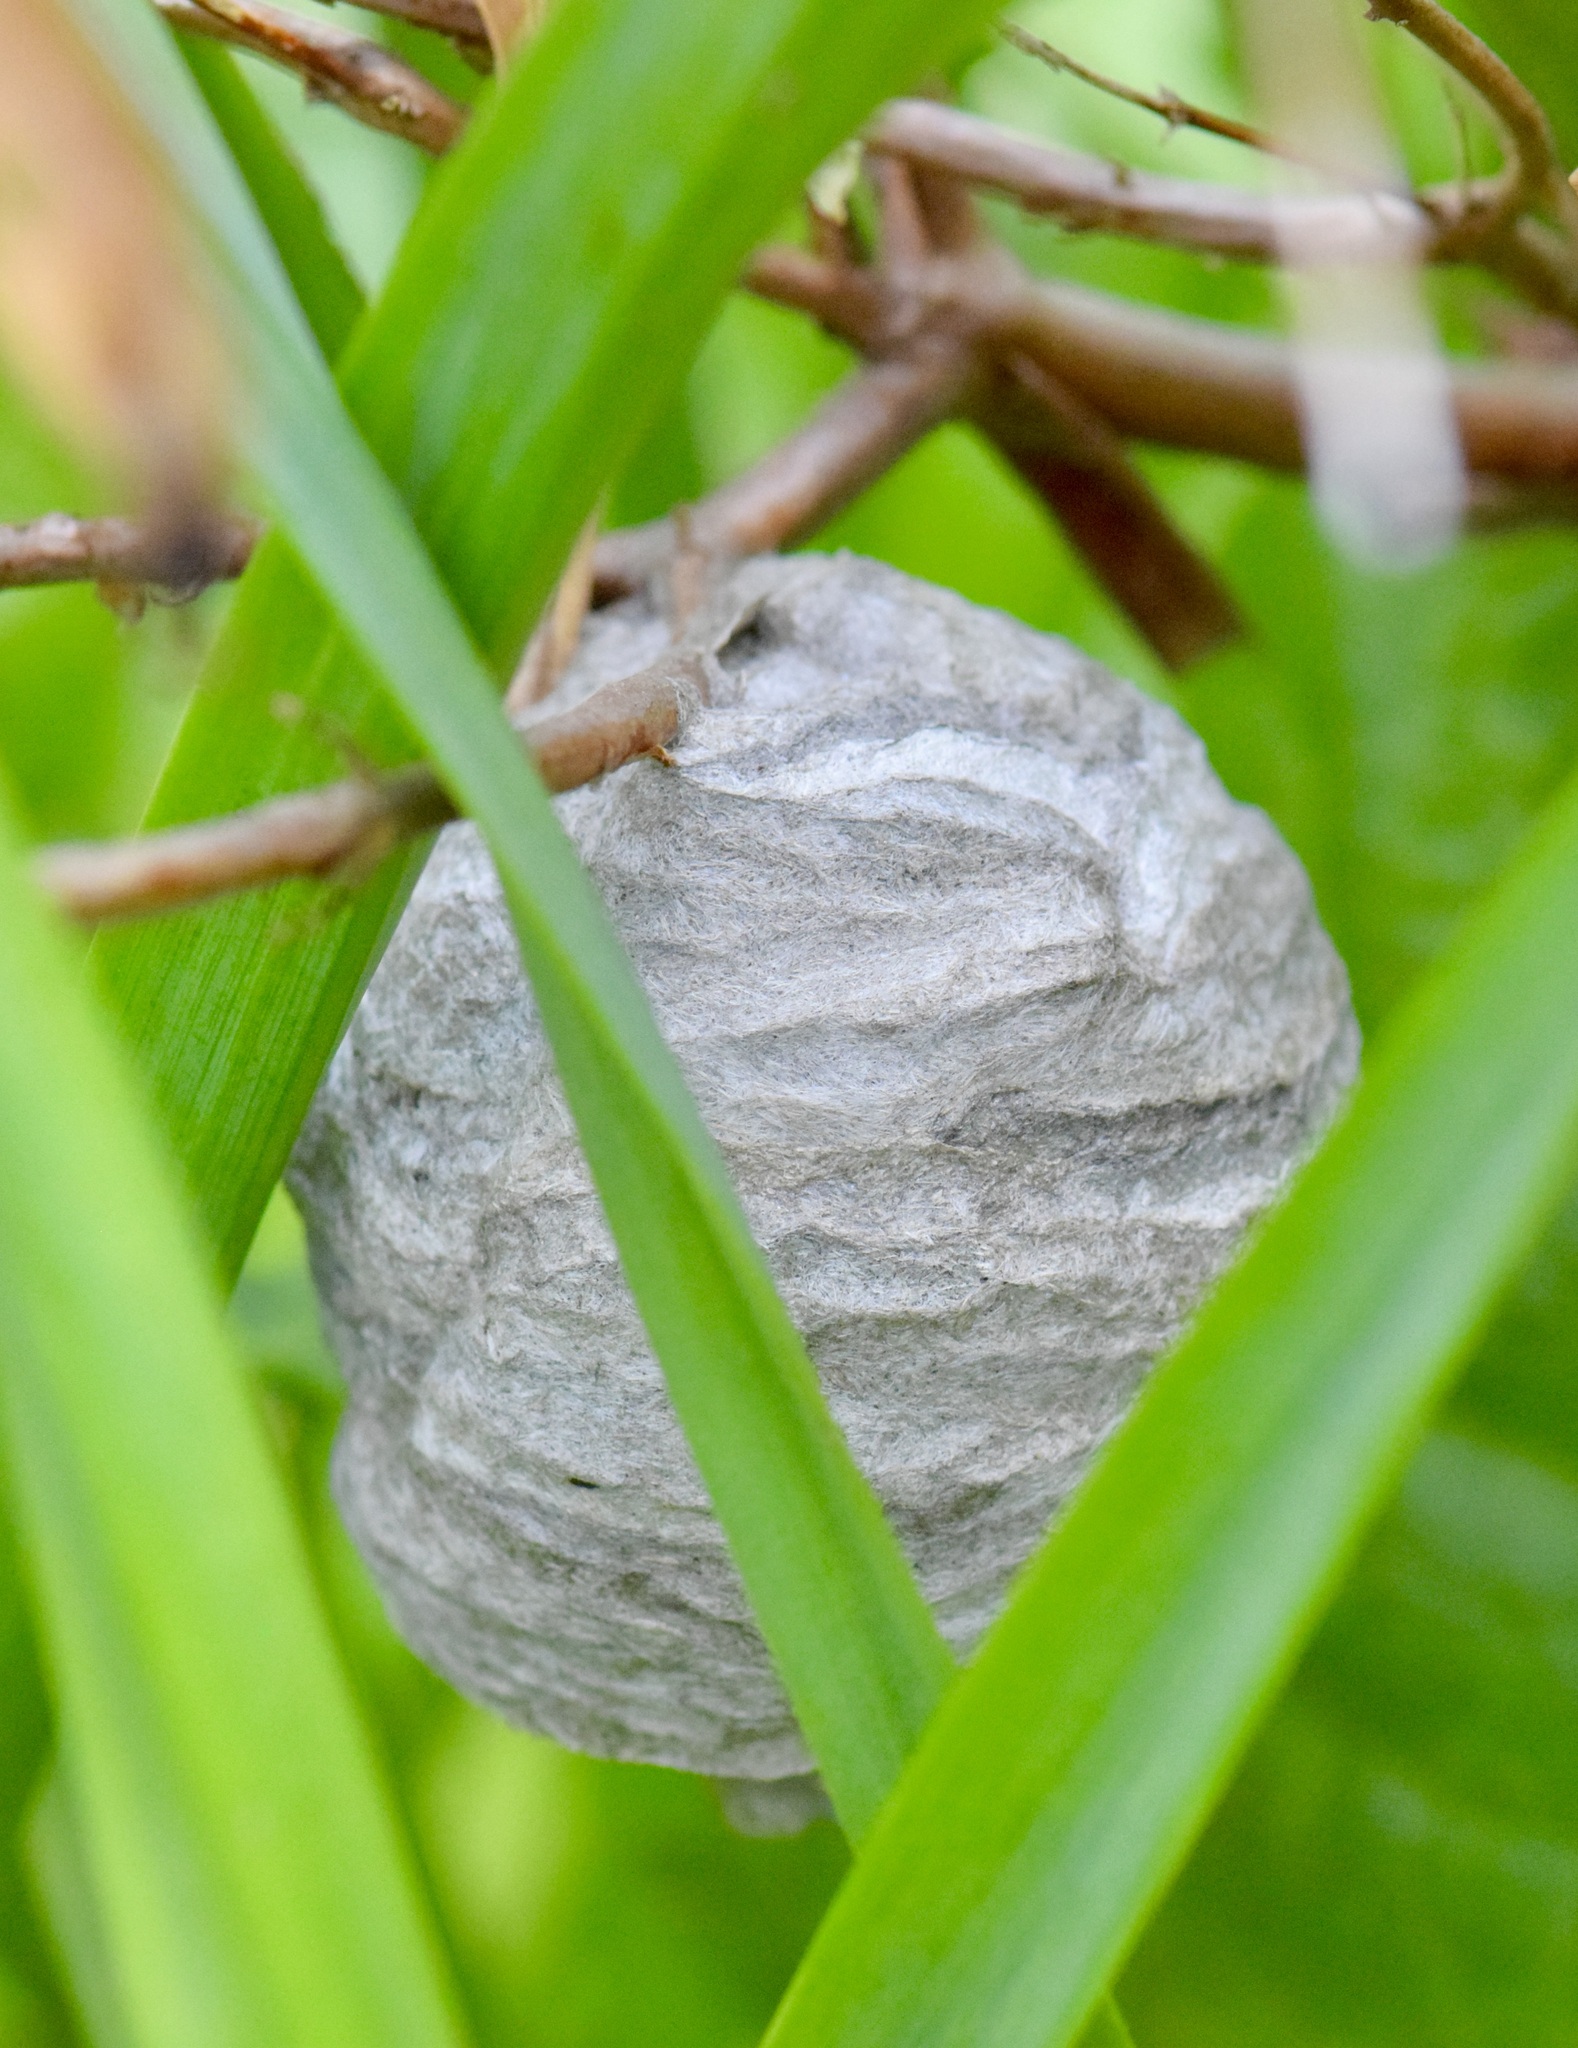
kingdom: Animalia
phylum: Arthropoda
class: Insecta
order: Hymenoptera
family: Vespidae
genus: Dolichovespula
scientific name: Dolichovespula
